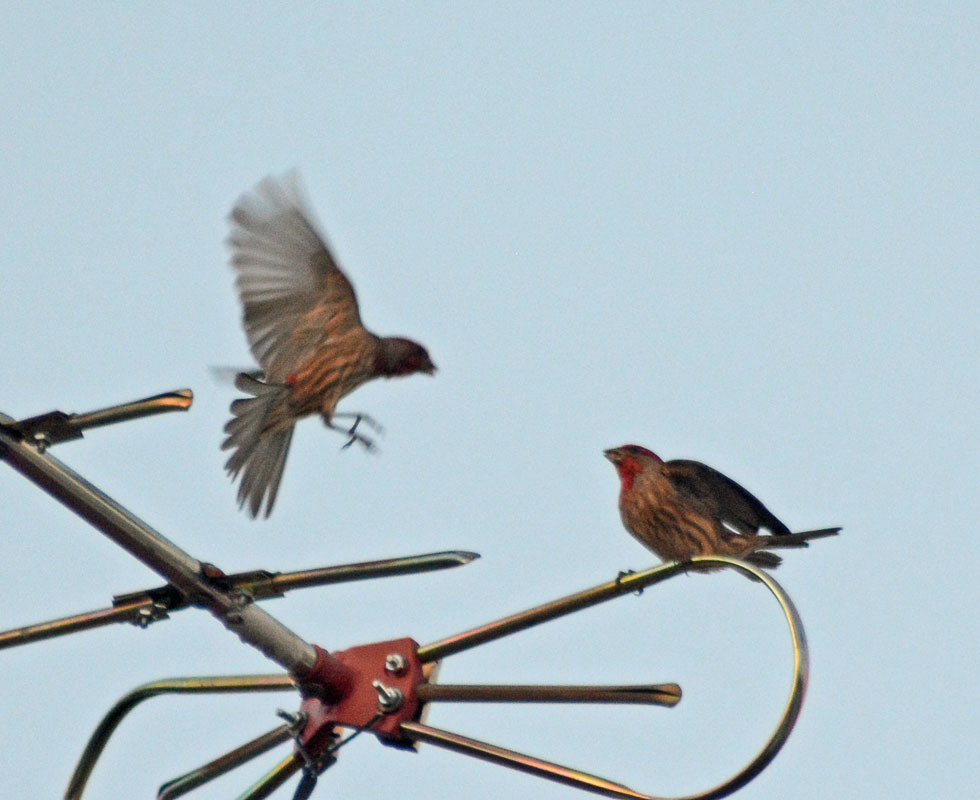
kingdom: Animalia
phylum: Chordata
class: Aves
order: Passeriformes
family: Fringillidae
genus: Haemorhous
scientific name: Haemorhous mexicanus
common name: House finch
